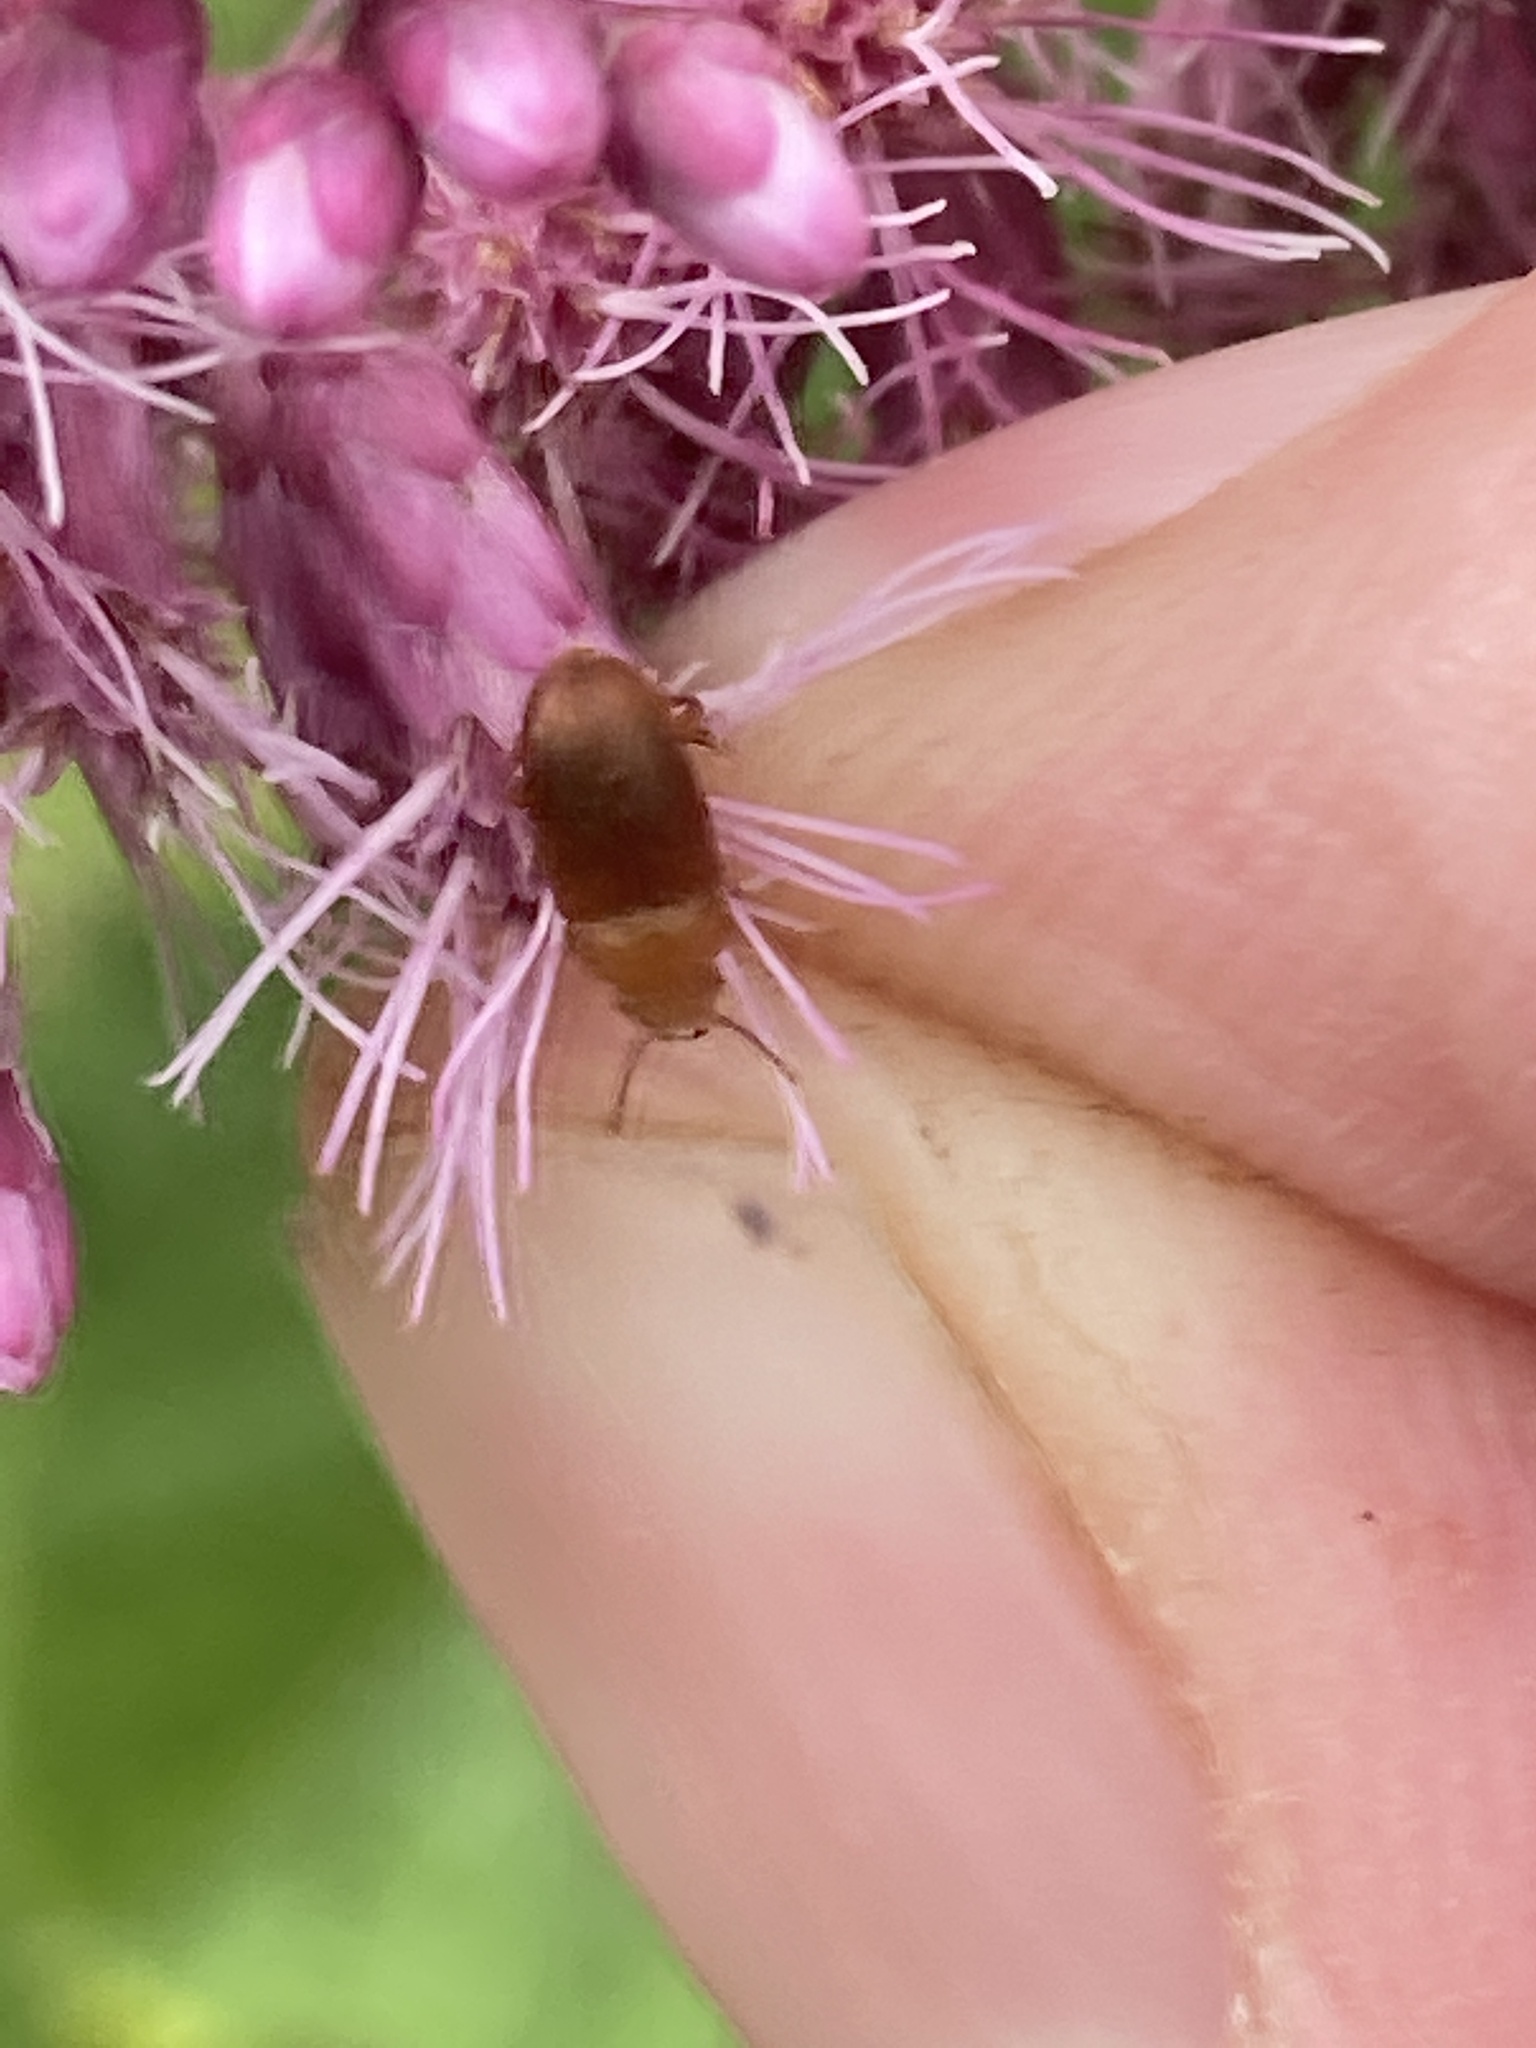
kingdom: Animalia
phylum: Arthropoda
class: Insecta
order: Coleoptera
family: Cryptophagidae
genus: Antherophagus
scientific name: Antherophagus
